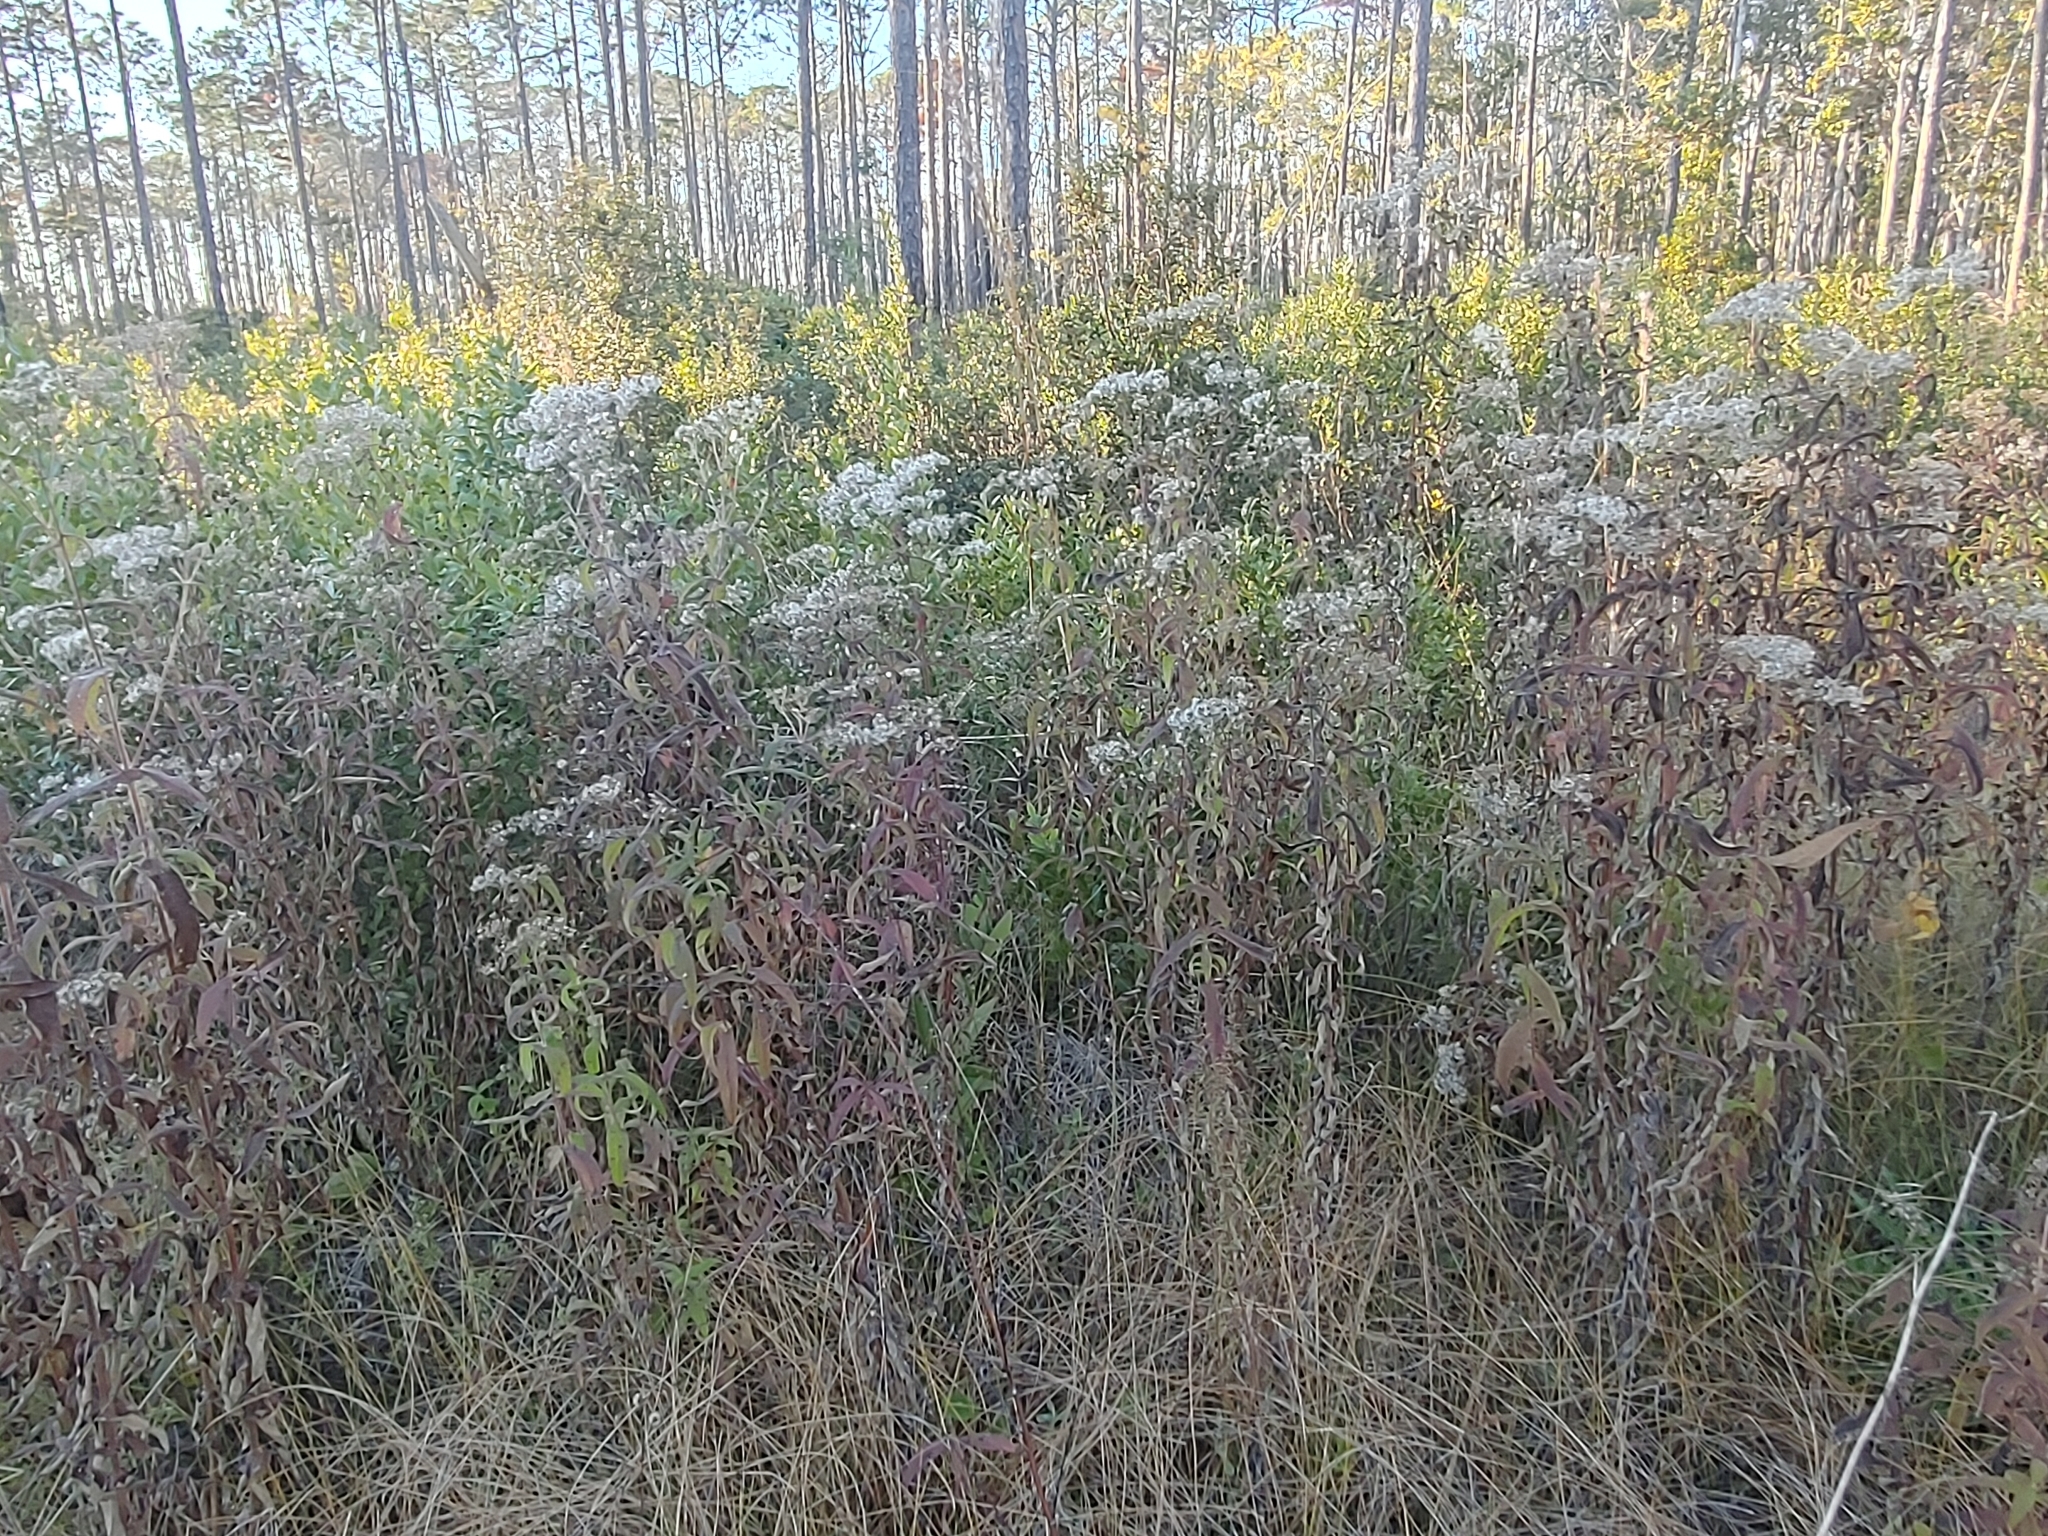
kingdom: Plantae
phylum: Tracheophyta
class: Magnoliopsida
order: Asterales
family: Asteraceae
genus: Eupatorium
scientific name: Eupatorium perfoliatum
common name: Boneset
